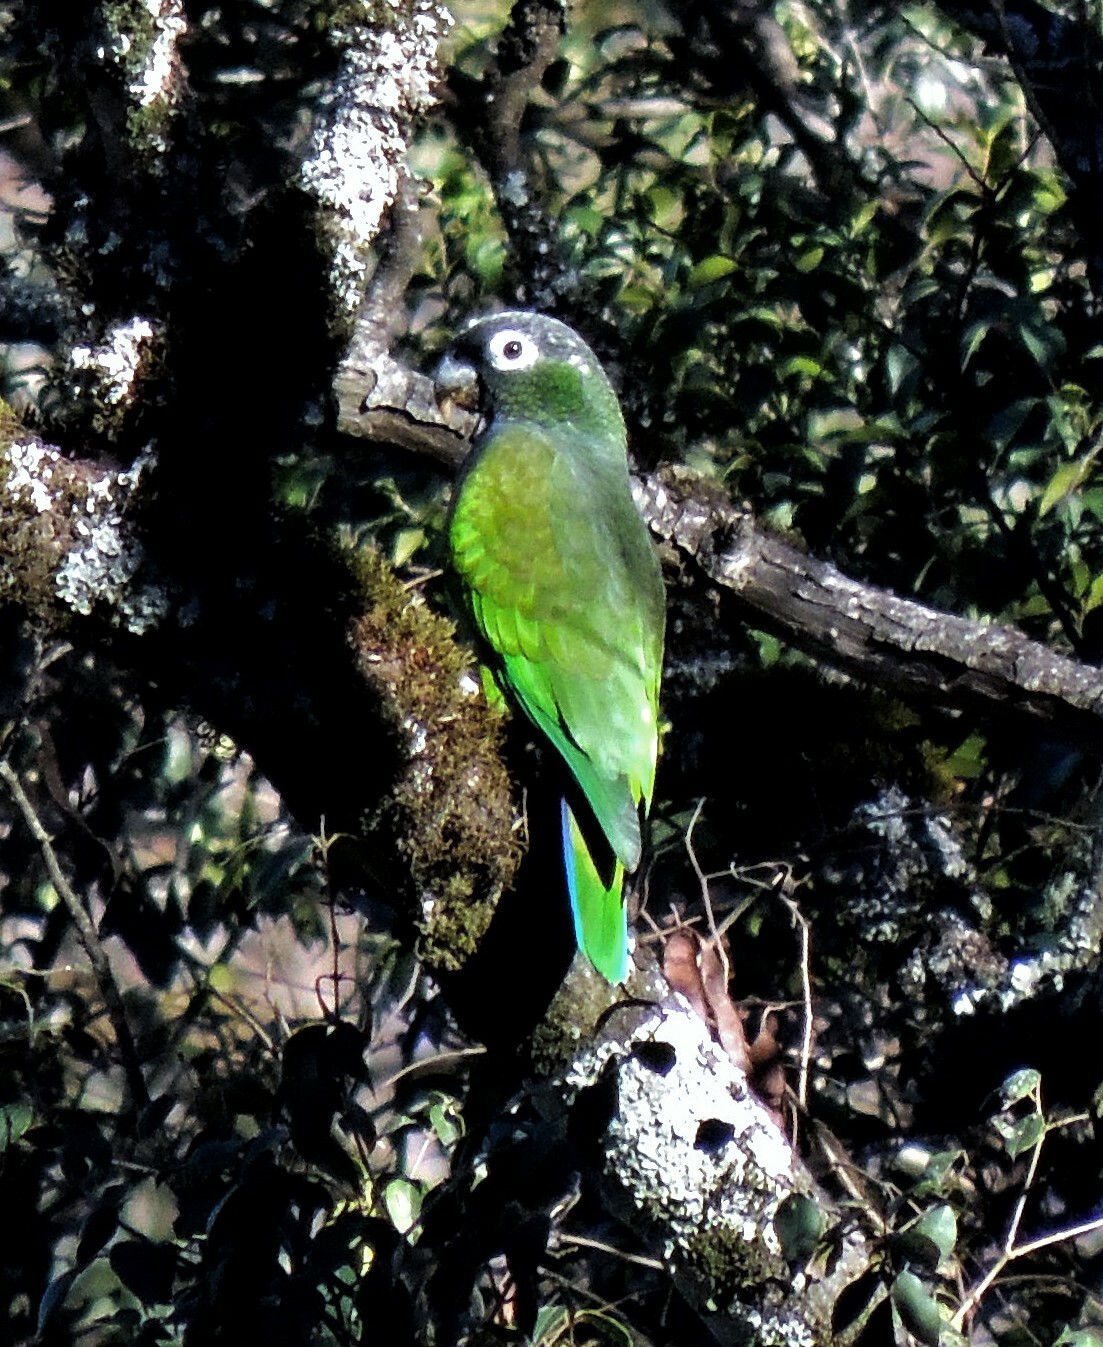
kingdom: Animalia
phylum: Chordata
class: Aves
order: Psittaciformes
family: Psittacidae
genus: Pionus
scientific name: Pionus maximiliani
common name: Scaly-headed parrot
